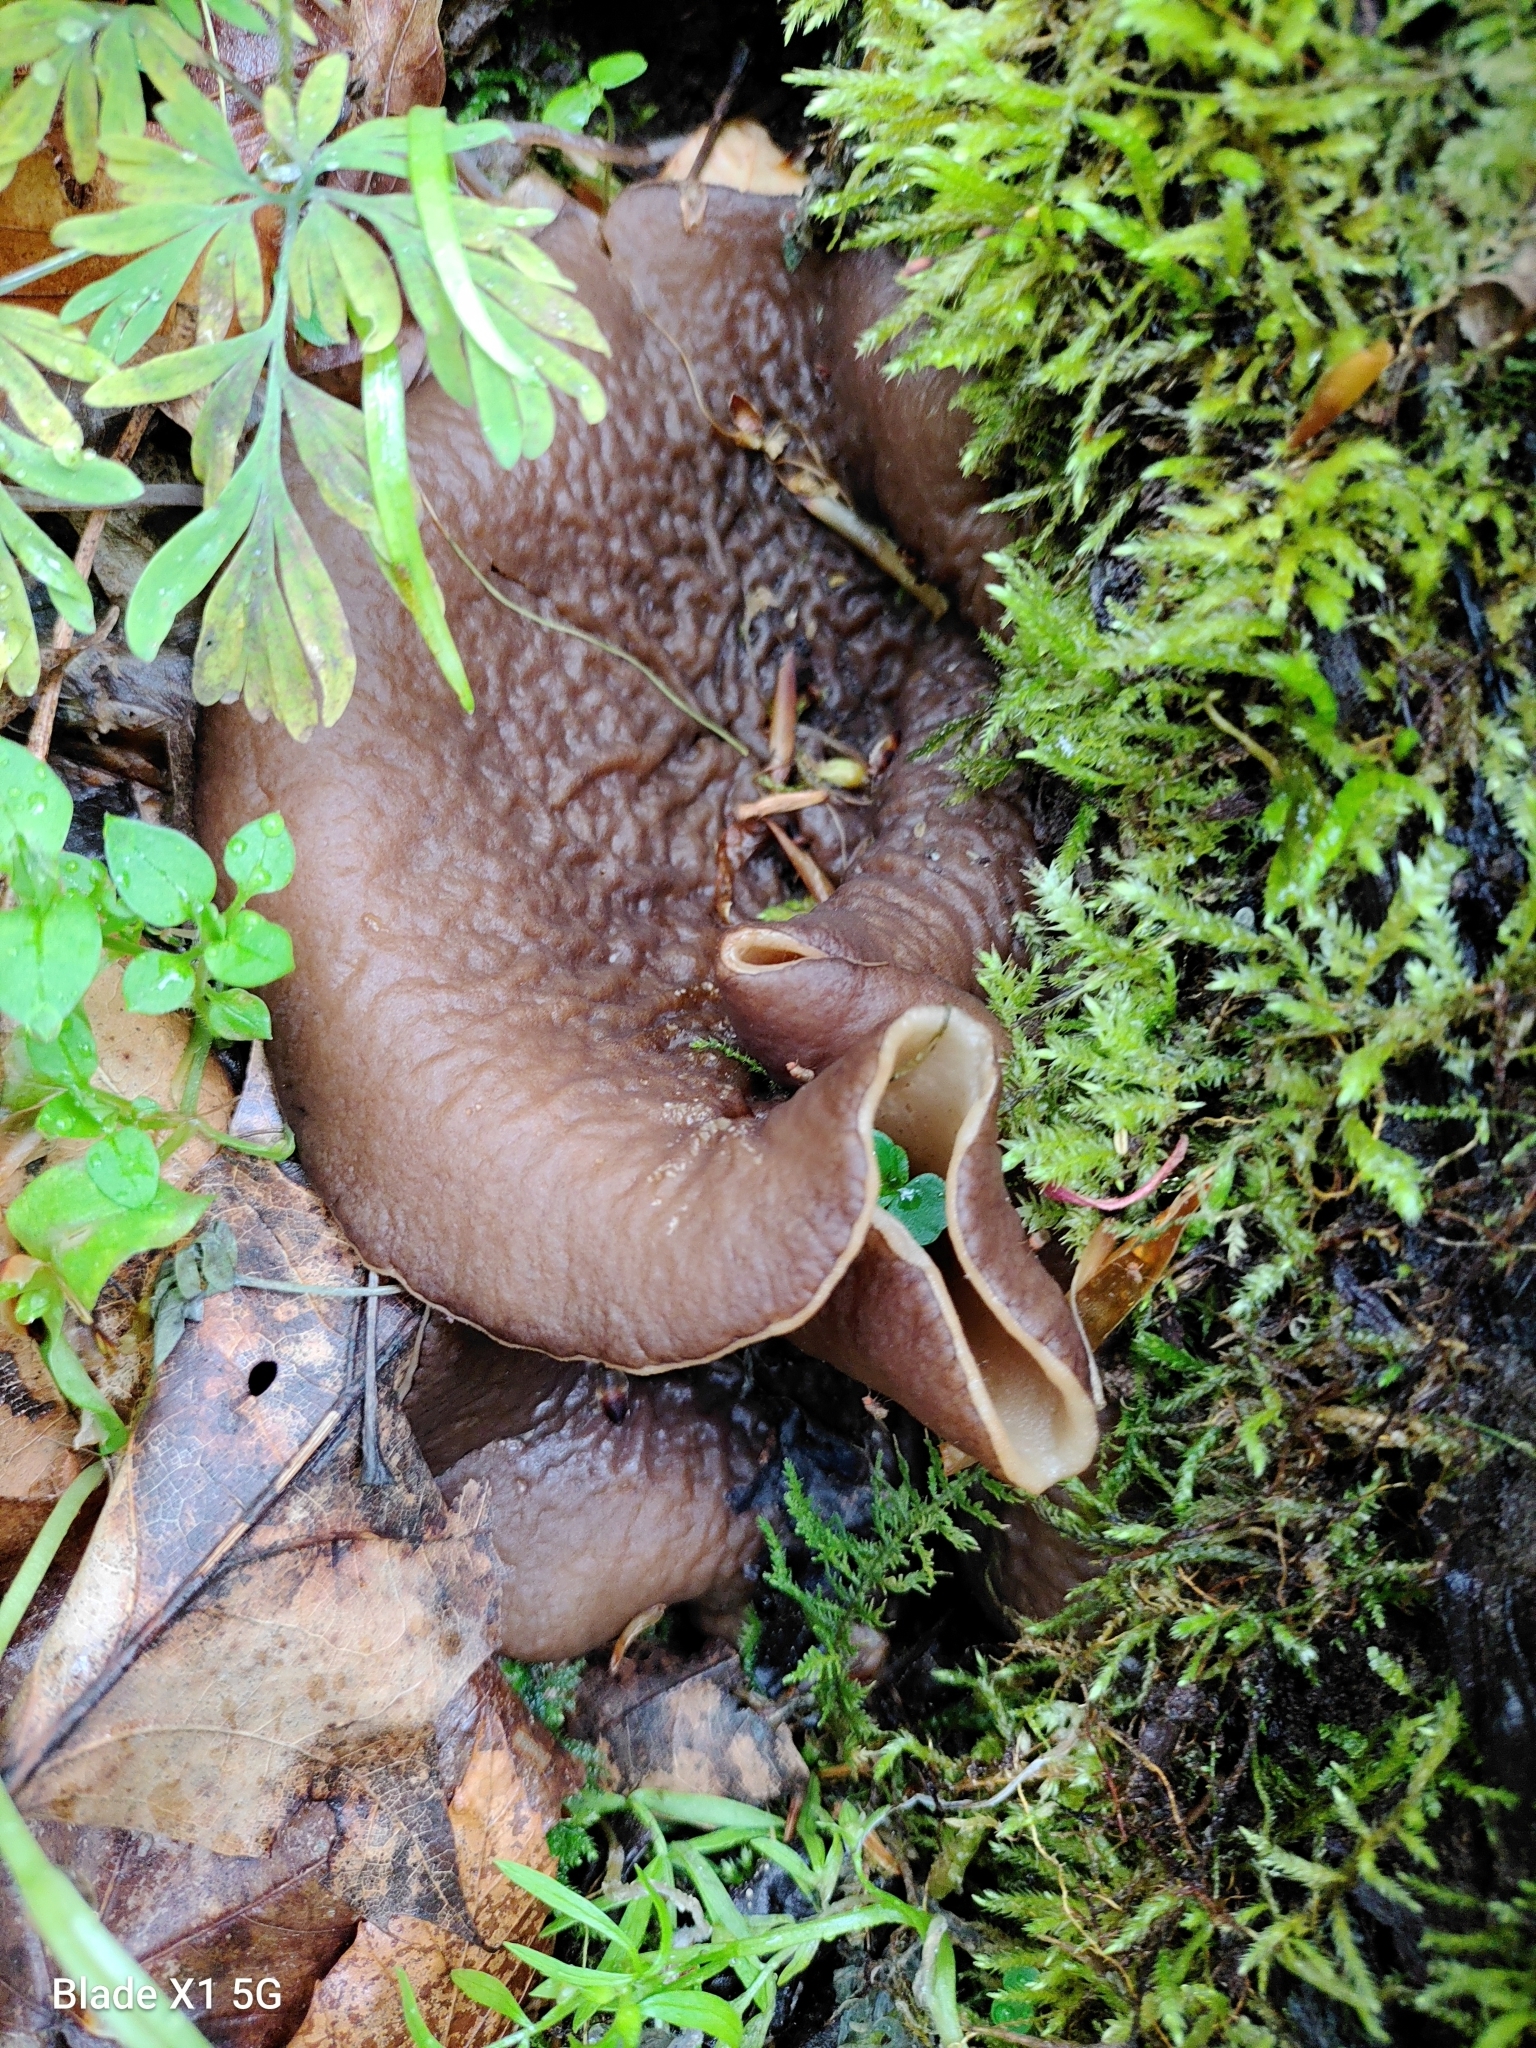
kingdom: Fungi
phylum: Ascomycota
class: Pezizomycetes
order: Pezizales
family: Morchellaceae
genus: Disciotis
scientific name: Disciotis venosa
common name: Bleach cup
